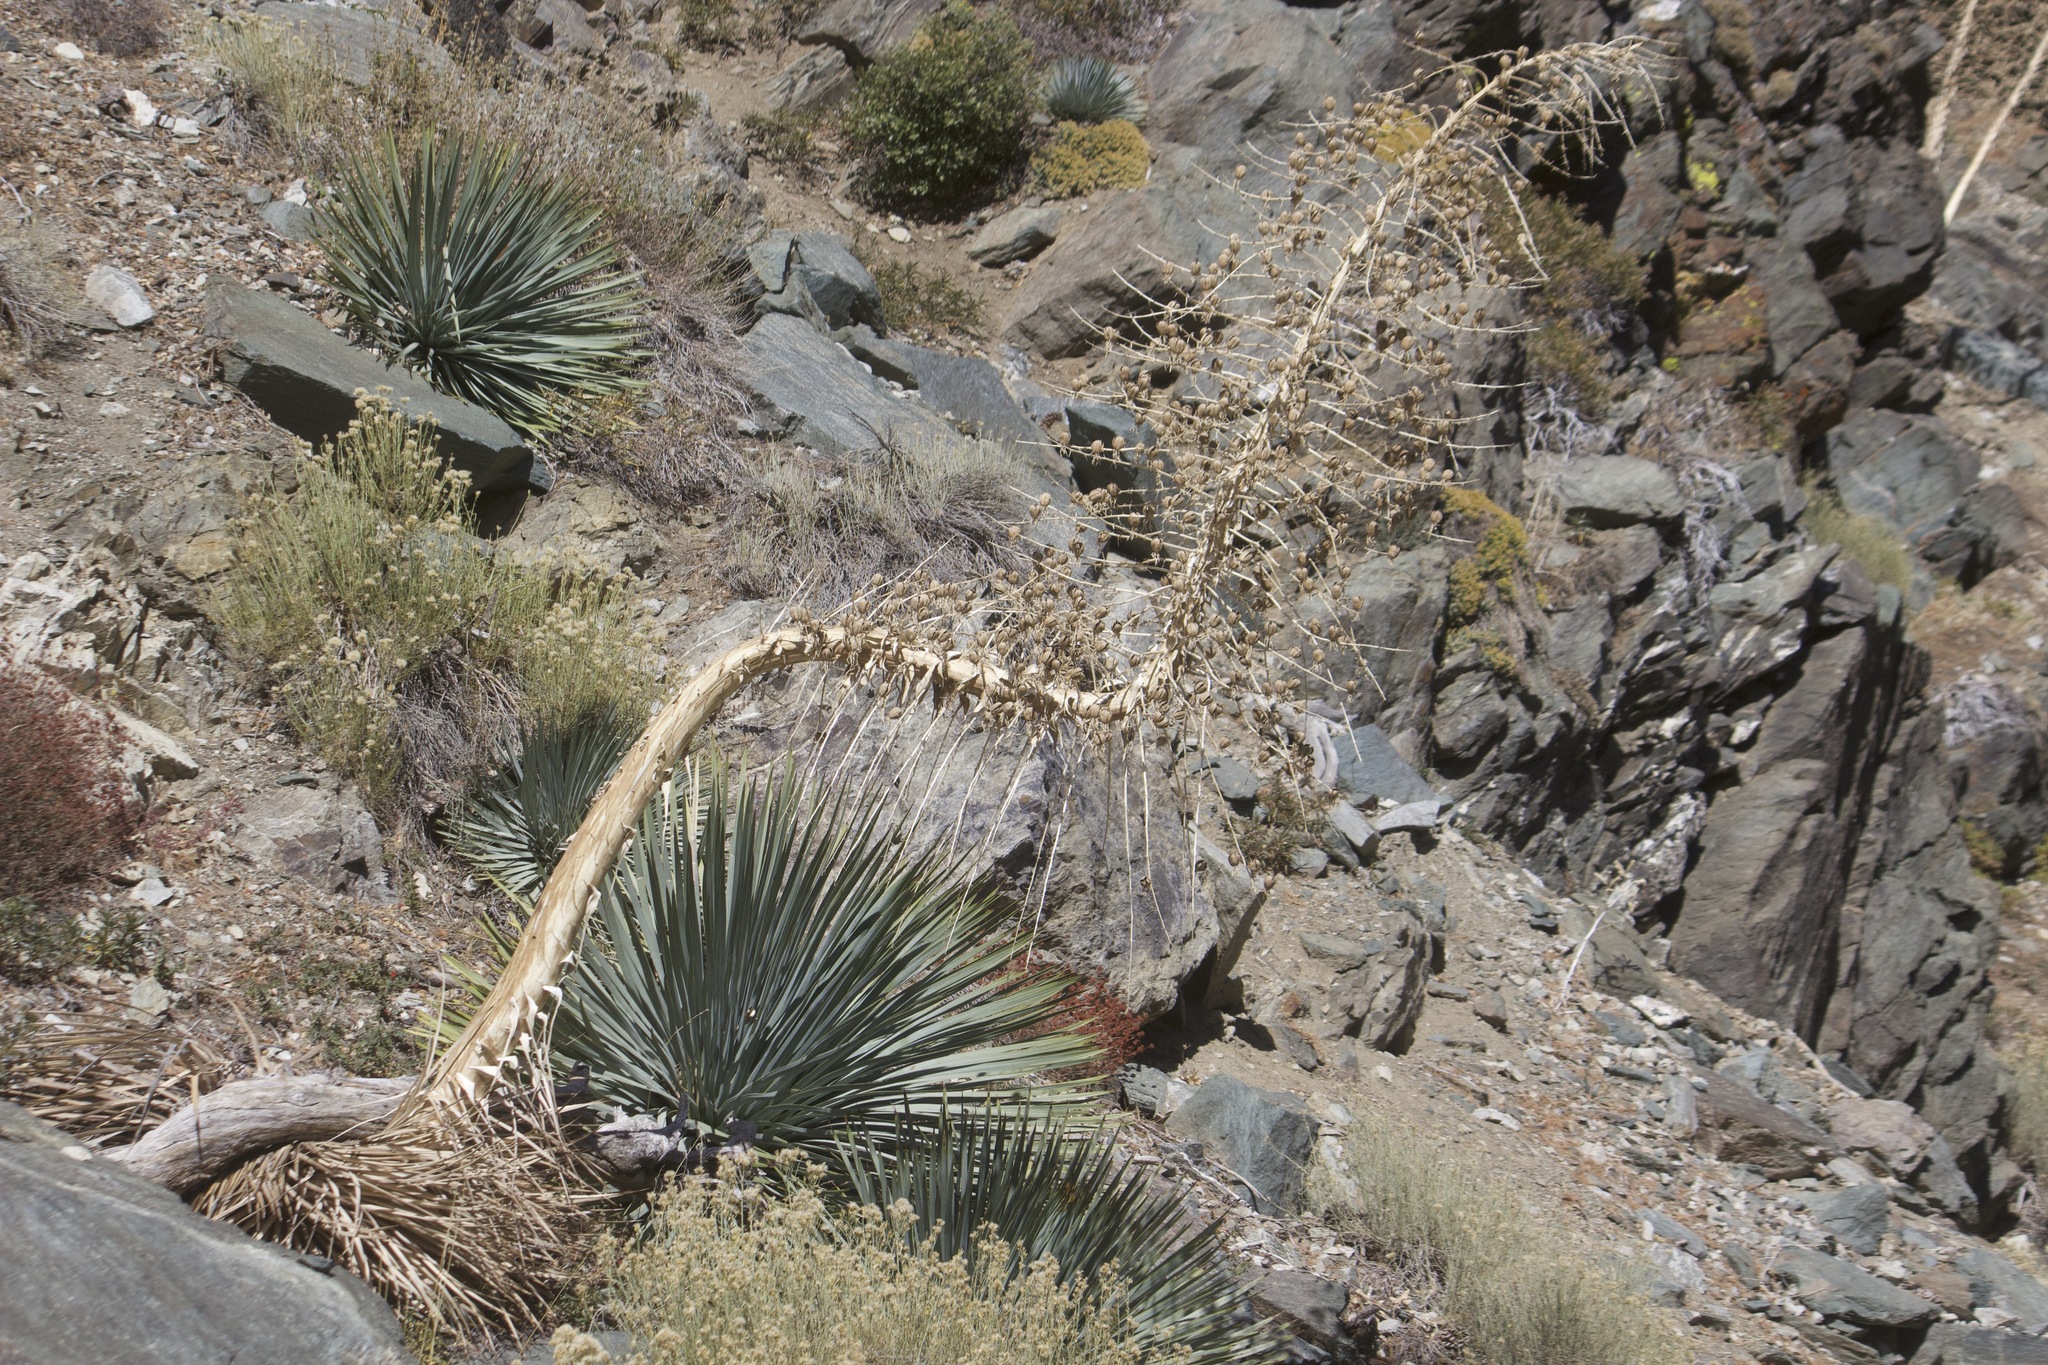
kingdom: Plantae
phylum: Tracheophyta
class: Liliopsida
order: Asparagales
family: Asparagaceae
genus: Hesperoyucca
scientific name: Hesperoyucca whipplei
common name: Our lord's-candle
